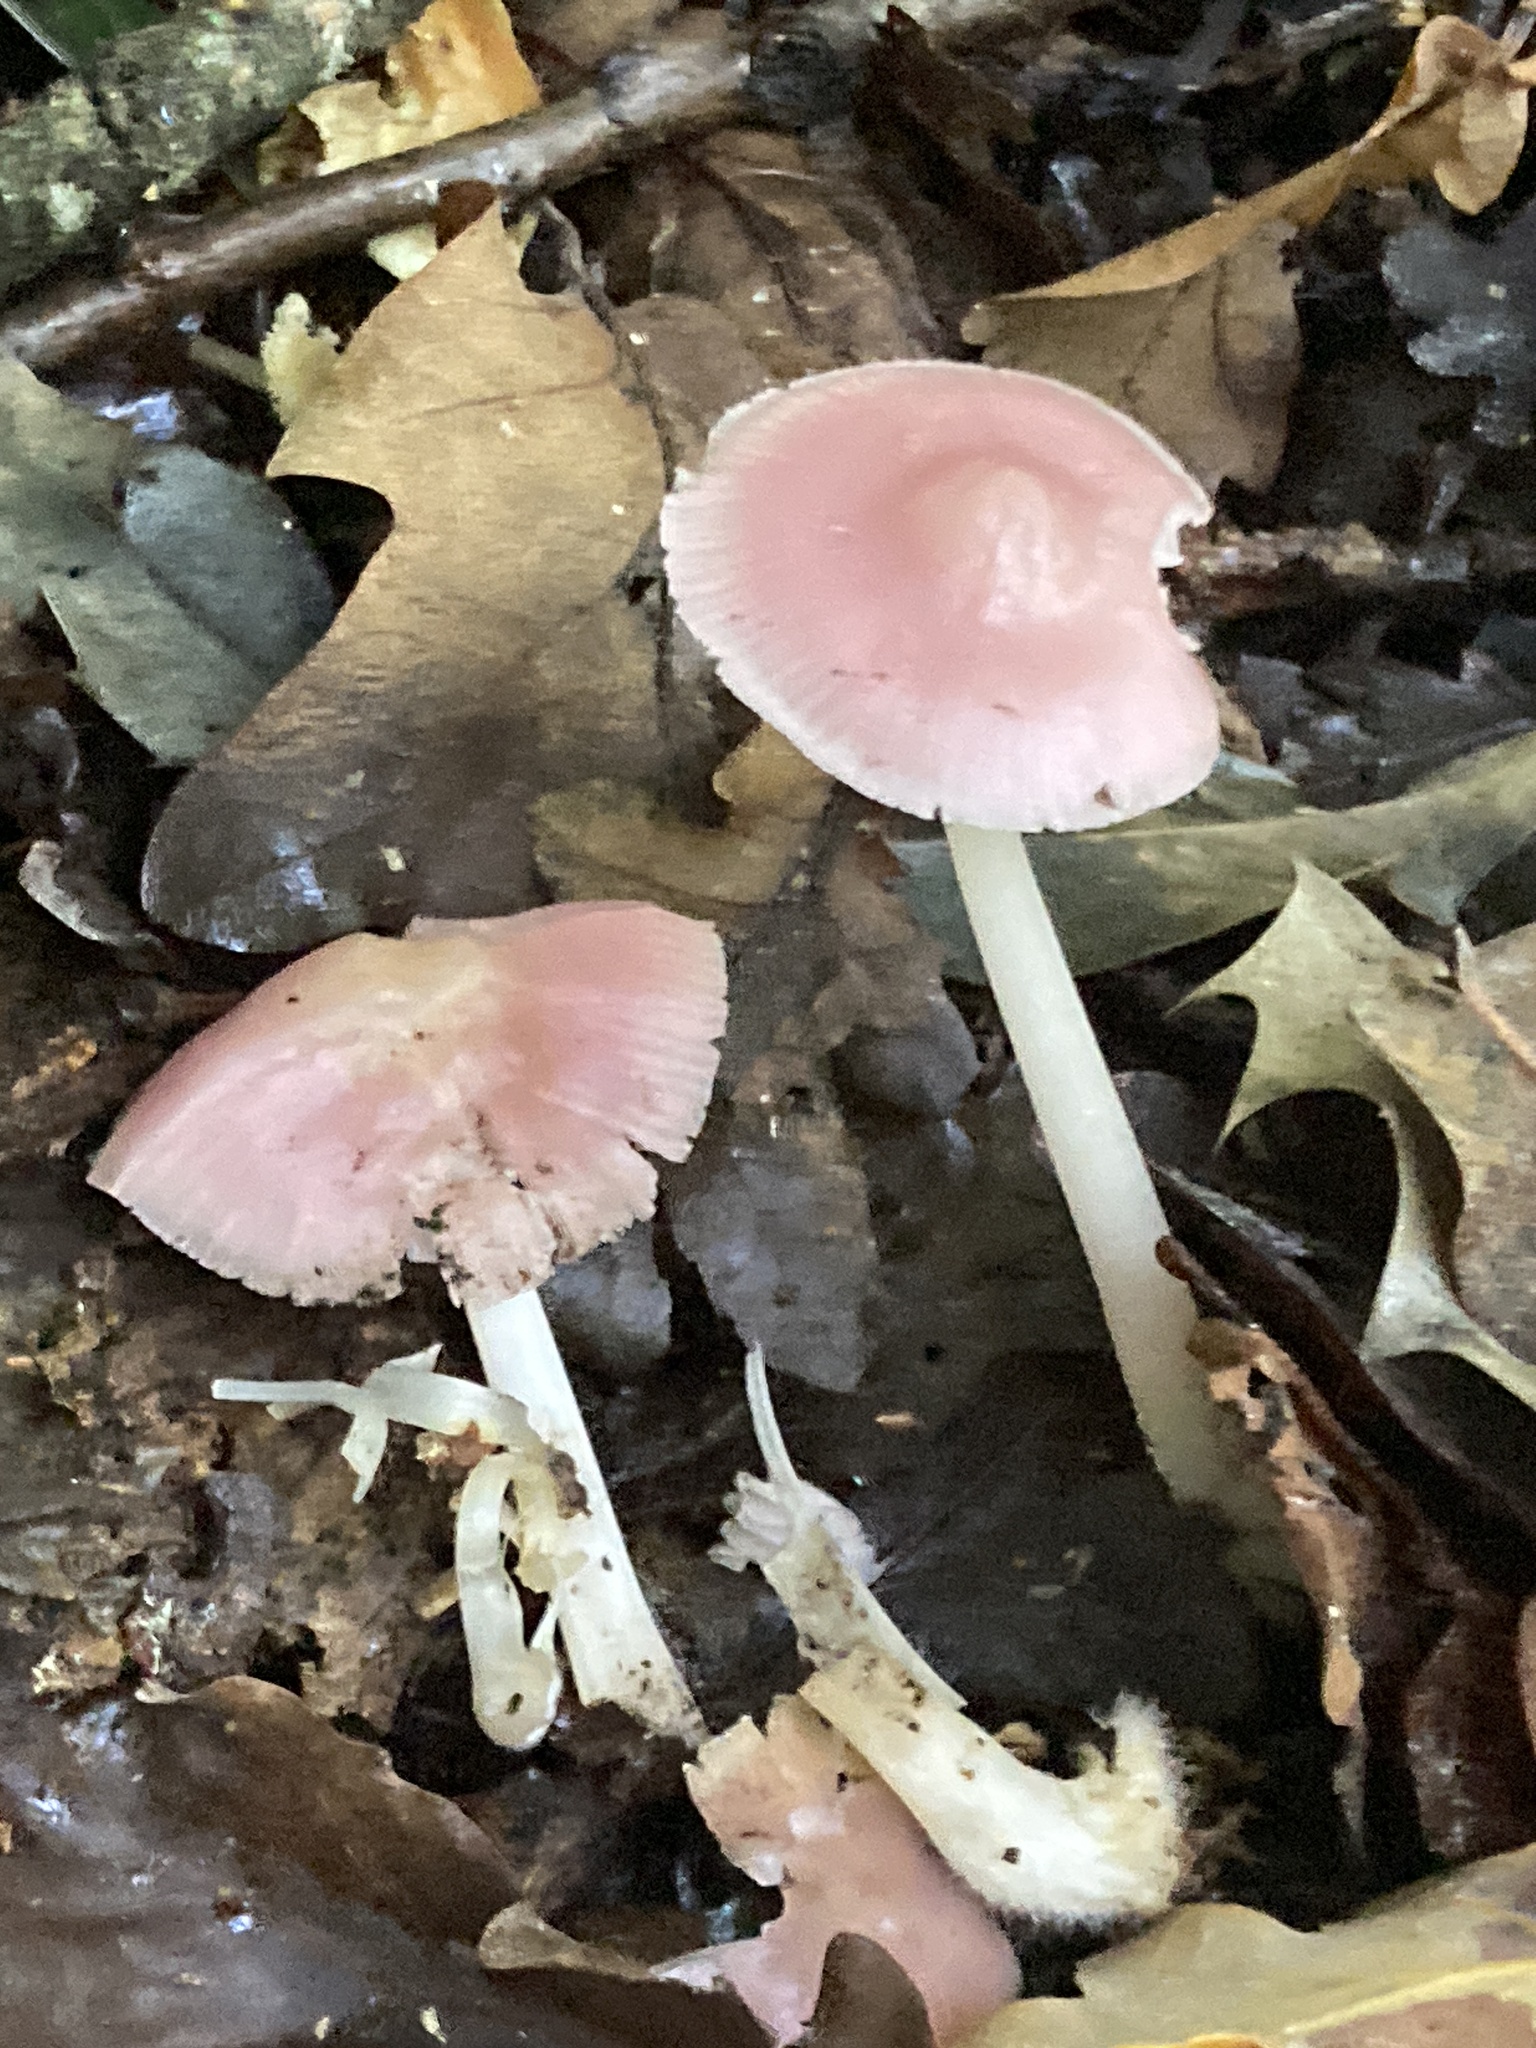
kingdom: Fungi
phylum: Basidiomycota
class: Agaricomycetes
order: Agaricales
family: Mycenaceae
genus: Mycena
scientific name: Mycena rosea
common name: Rosy bonnet
